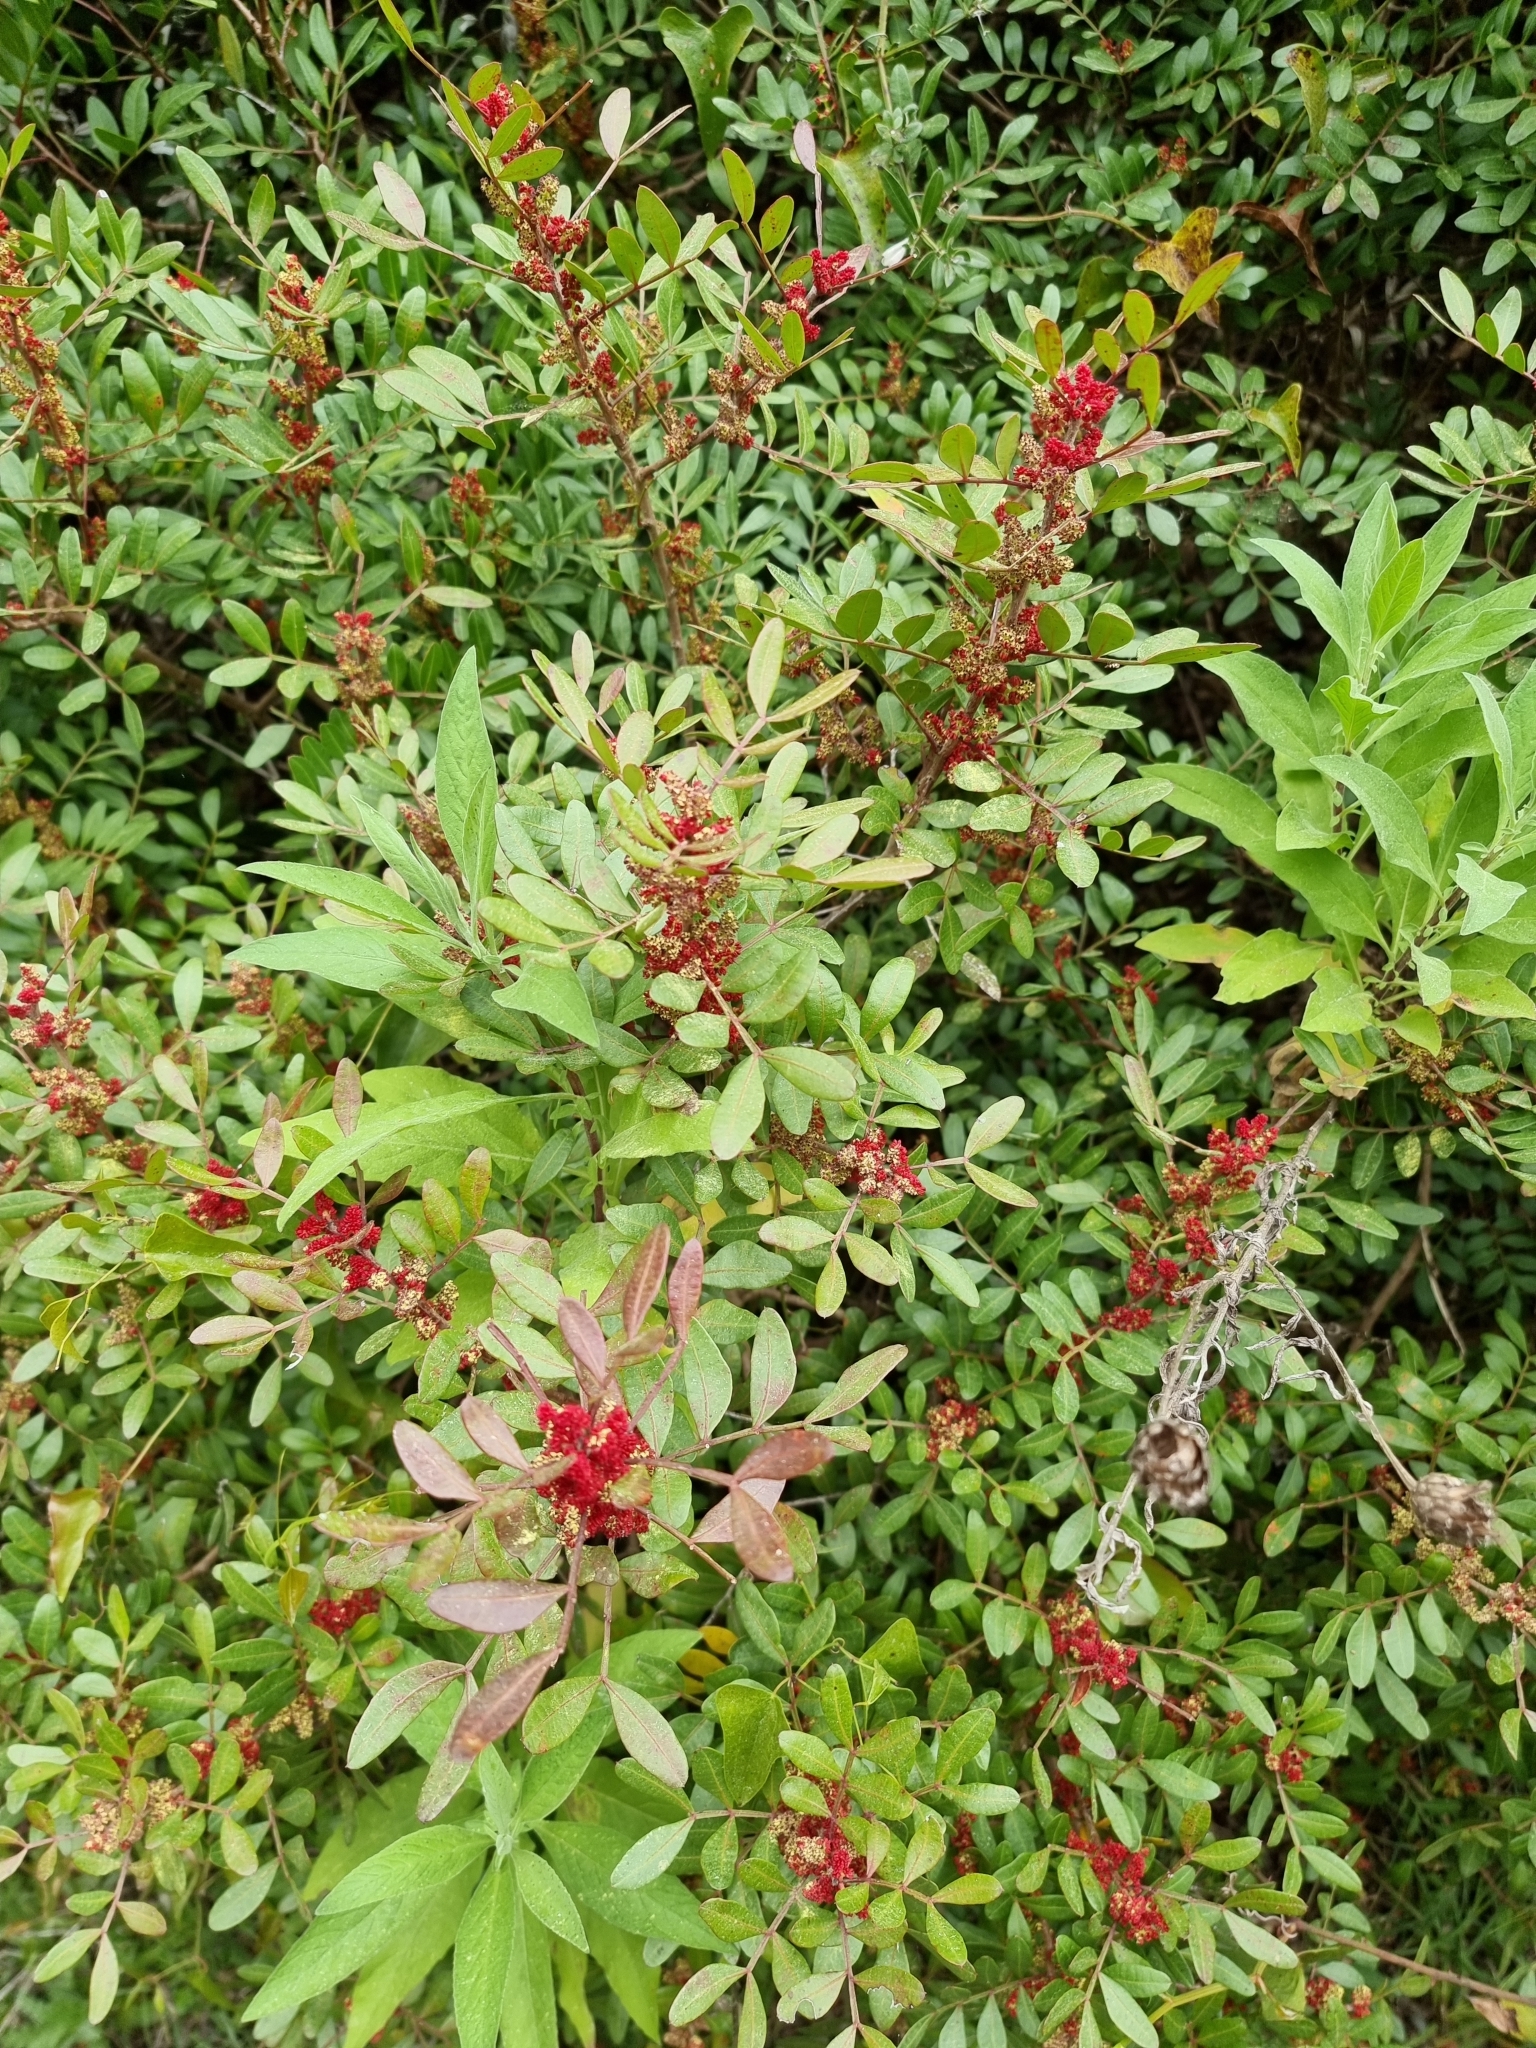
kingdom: Plantae
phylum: Tracheophyta
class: Magnoliopsida
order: Sapindales
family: Anacardiaceae
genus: Pistacia
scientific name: Pistacia lentiscus
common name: Lentisk
